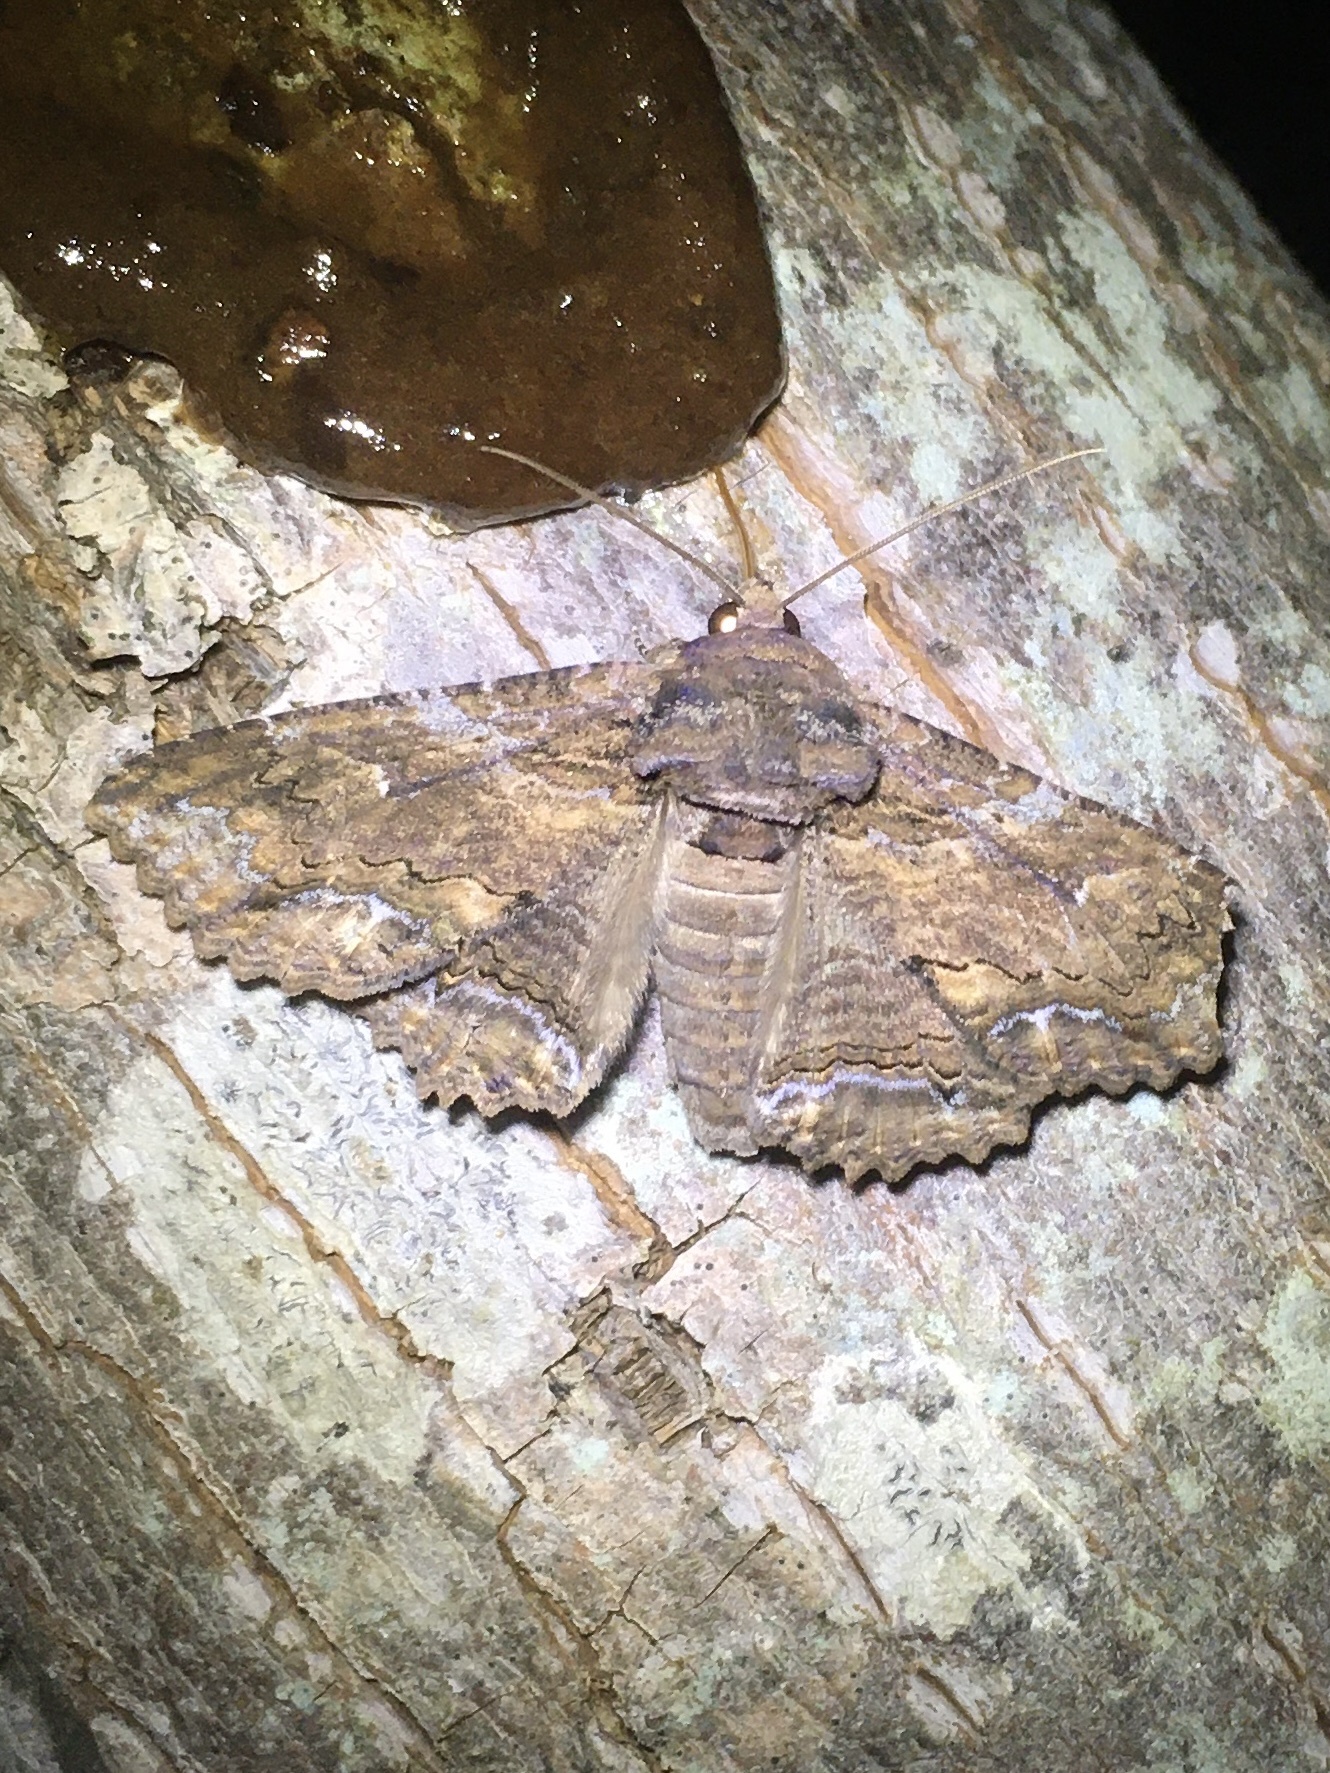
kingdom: Animalia
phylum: Arthropoda
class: Insecta
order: Lepidoptera
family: Erebidae
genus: Zale
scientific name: Zale lunata
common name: Lunate zale moth
